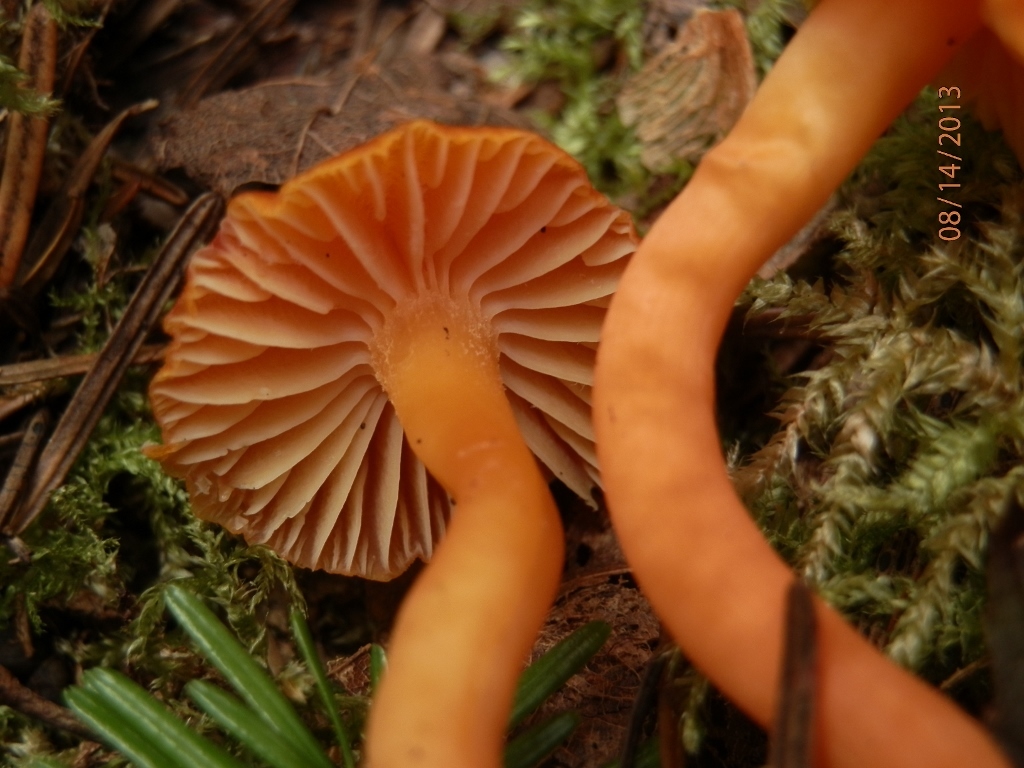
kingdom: Fungi
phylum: Basidiomycota
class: Agaricomycetes
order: Agaricales
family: Hygrophoraceae
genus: Hygrocybe
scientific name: Hygrocybe miniata
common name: Vermilion waxcap
